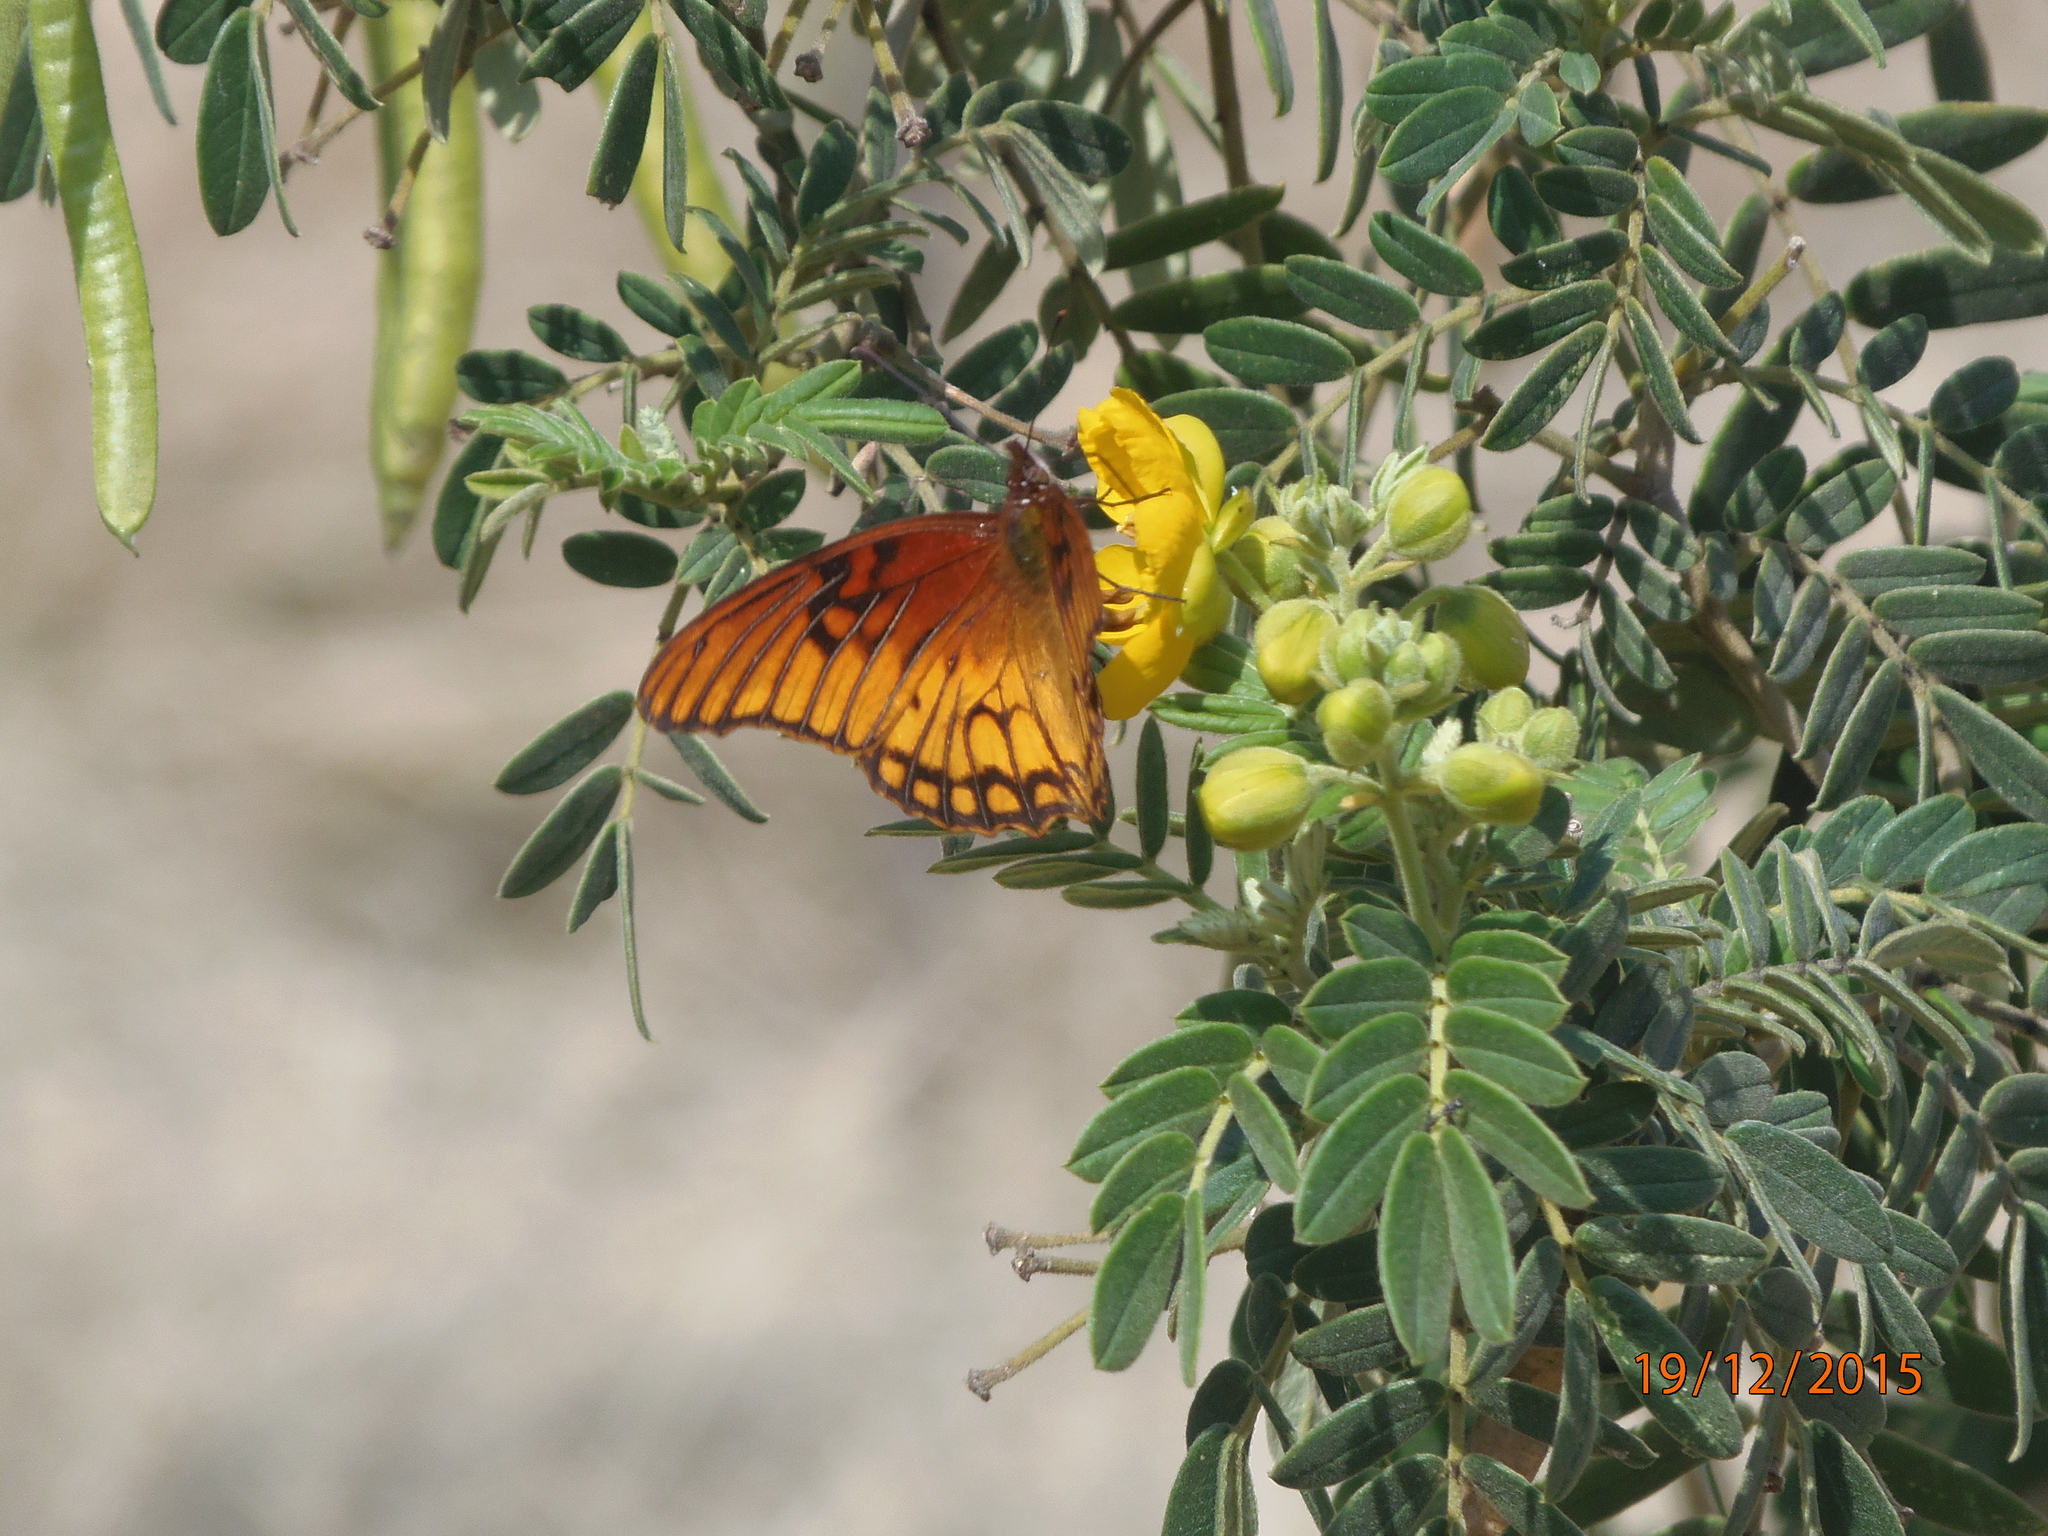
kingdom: Animalia
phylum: Arthropoda
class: Insecta
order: Lepidoptera
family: Nymphalidae
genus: Dione
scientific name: Dione moneta
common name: Mexican silverspot
